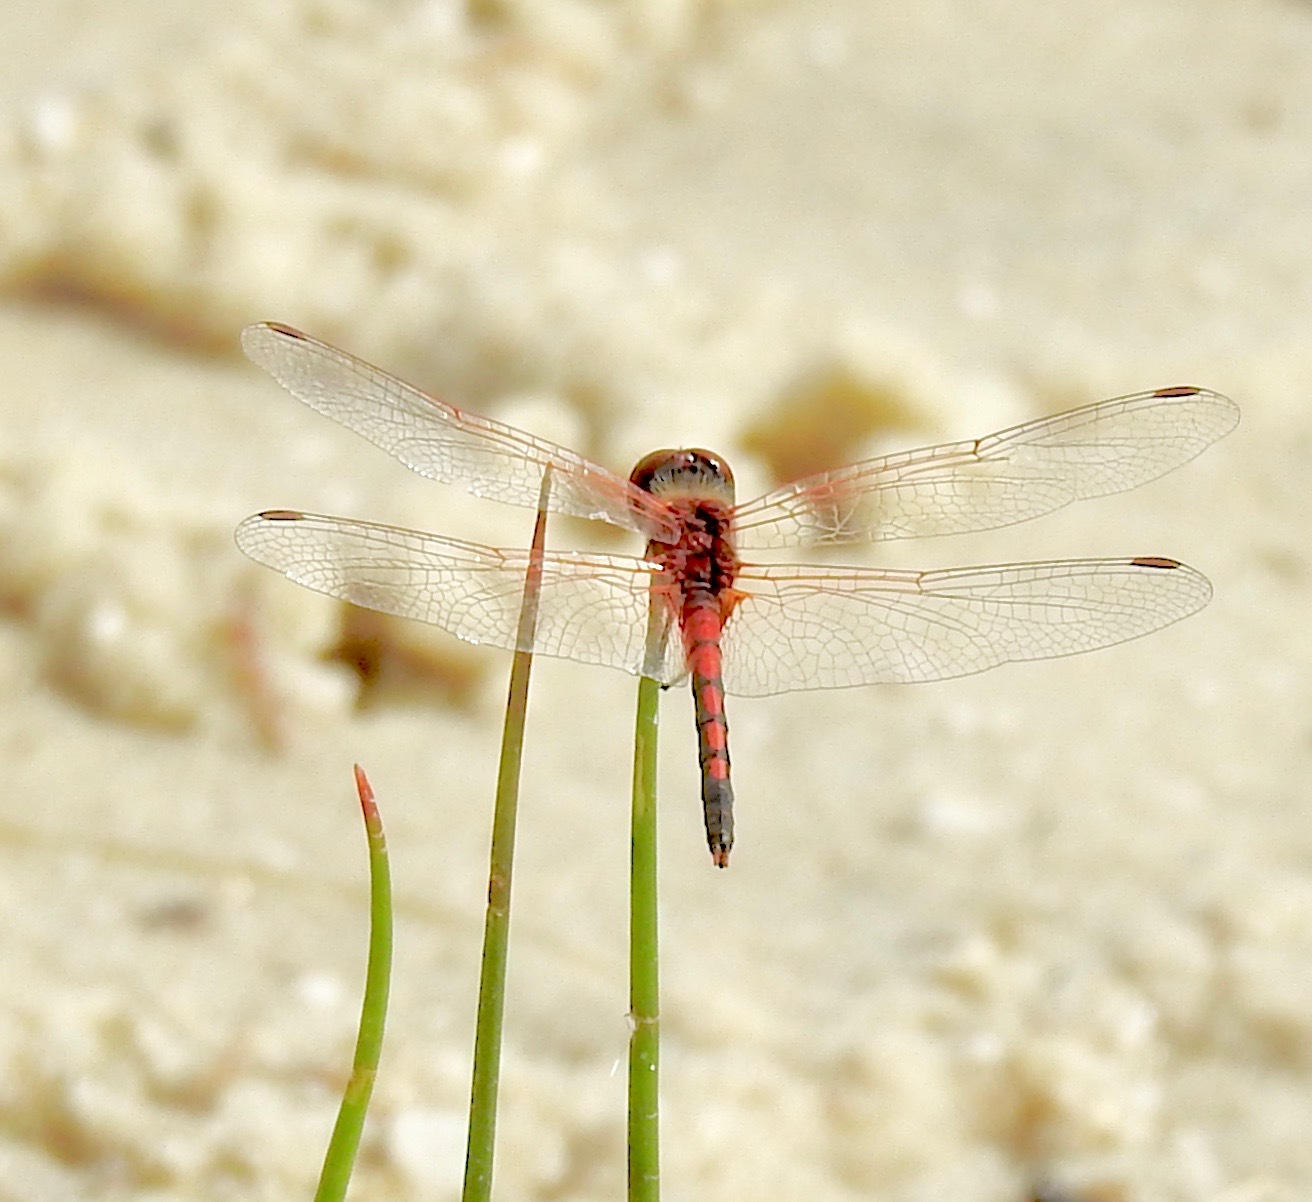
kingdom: Animalia
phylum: Arthropoda
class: Insecta
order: Odonata
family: Libellulidae
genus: Celithemis
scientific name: Celithemis bertha
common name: Red-veined pennant
